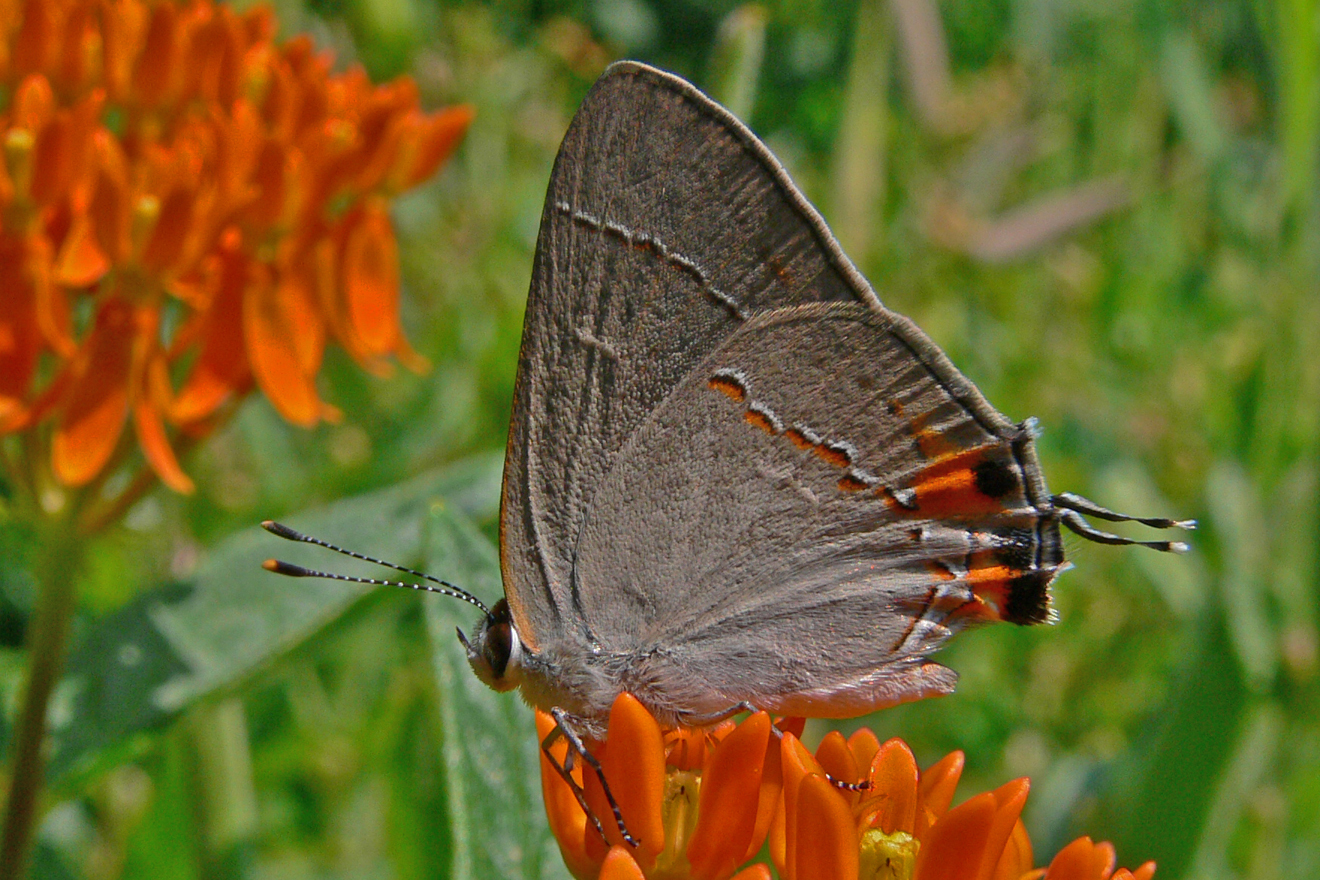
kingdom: Animalia
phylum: Arthropoda
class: Insecta
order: Lepidoptera
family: Lycaenidae
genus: Strymon
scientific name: Strymon melinus
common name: Gray hairstreak
